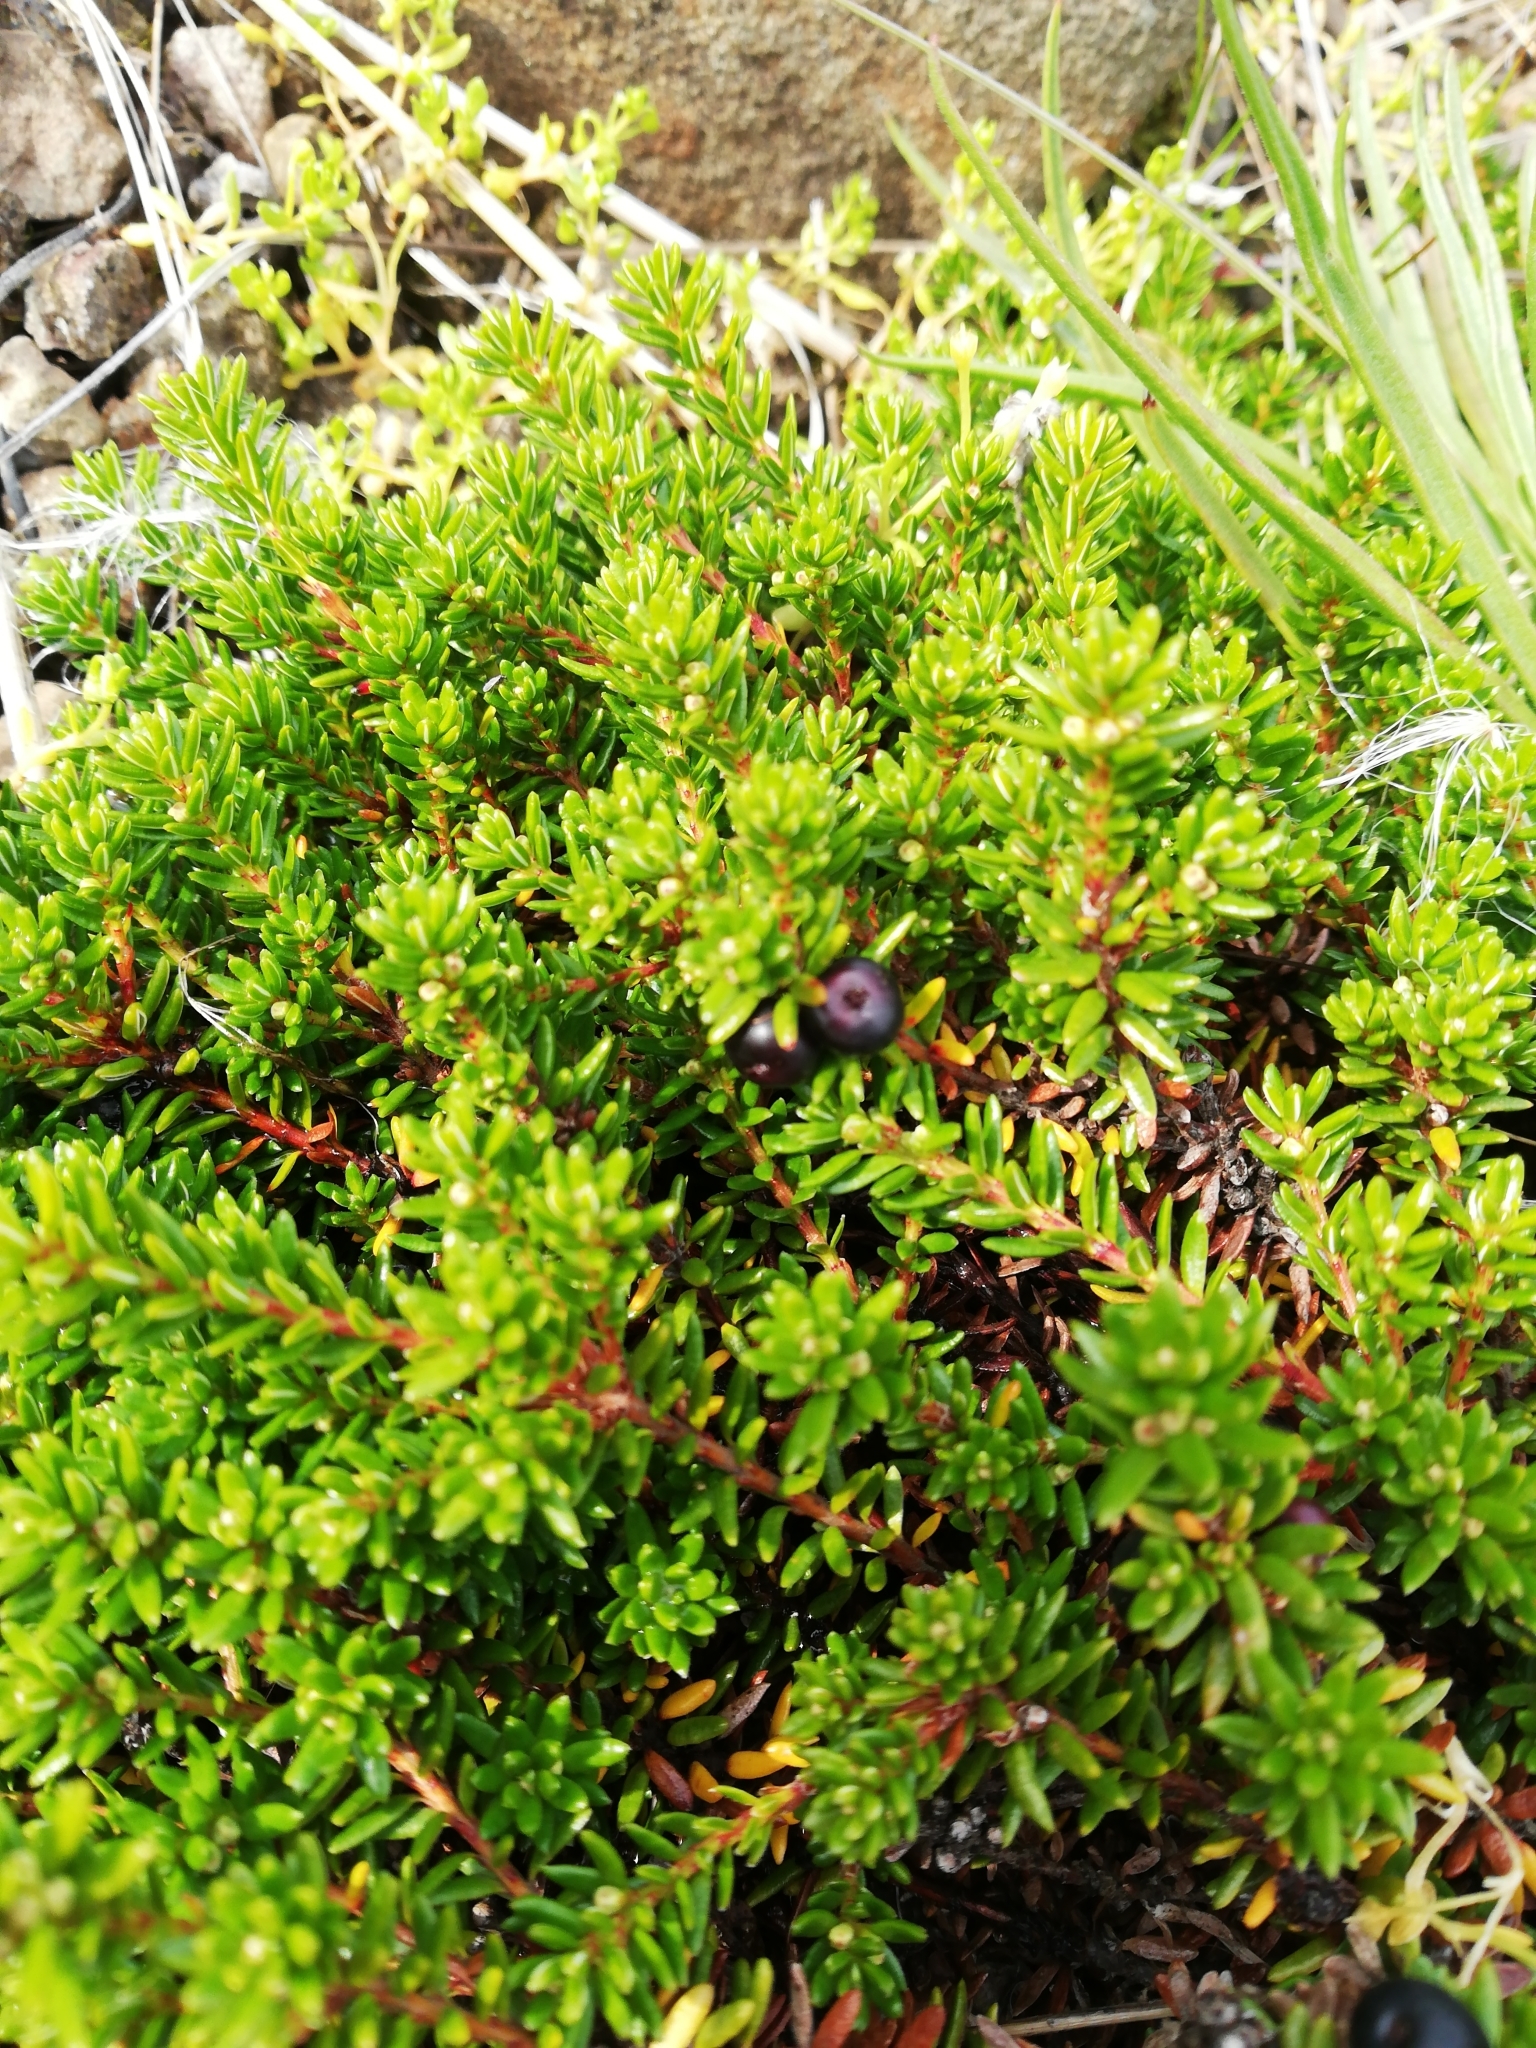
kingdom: Plantae
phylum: Tracheophyta
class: Magnoliopsida
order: Ericales
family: Ericaceae
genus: Empetrum
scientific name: Empetrum nigrum
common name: Black crowberry
